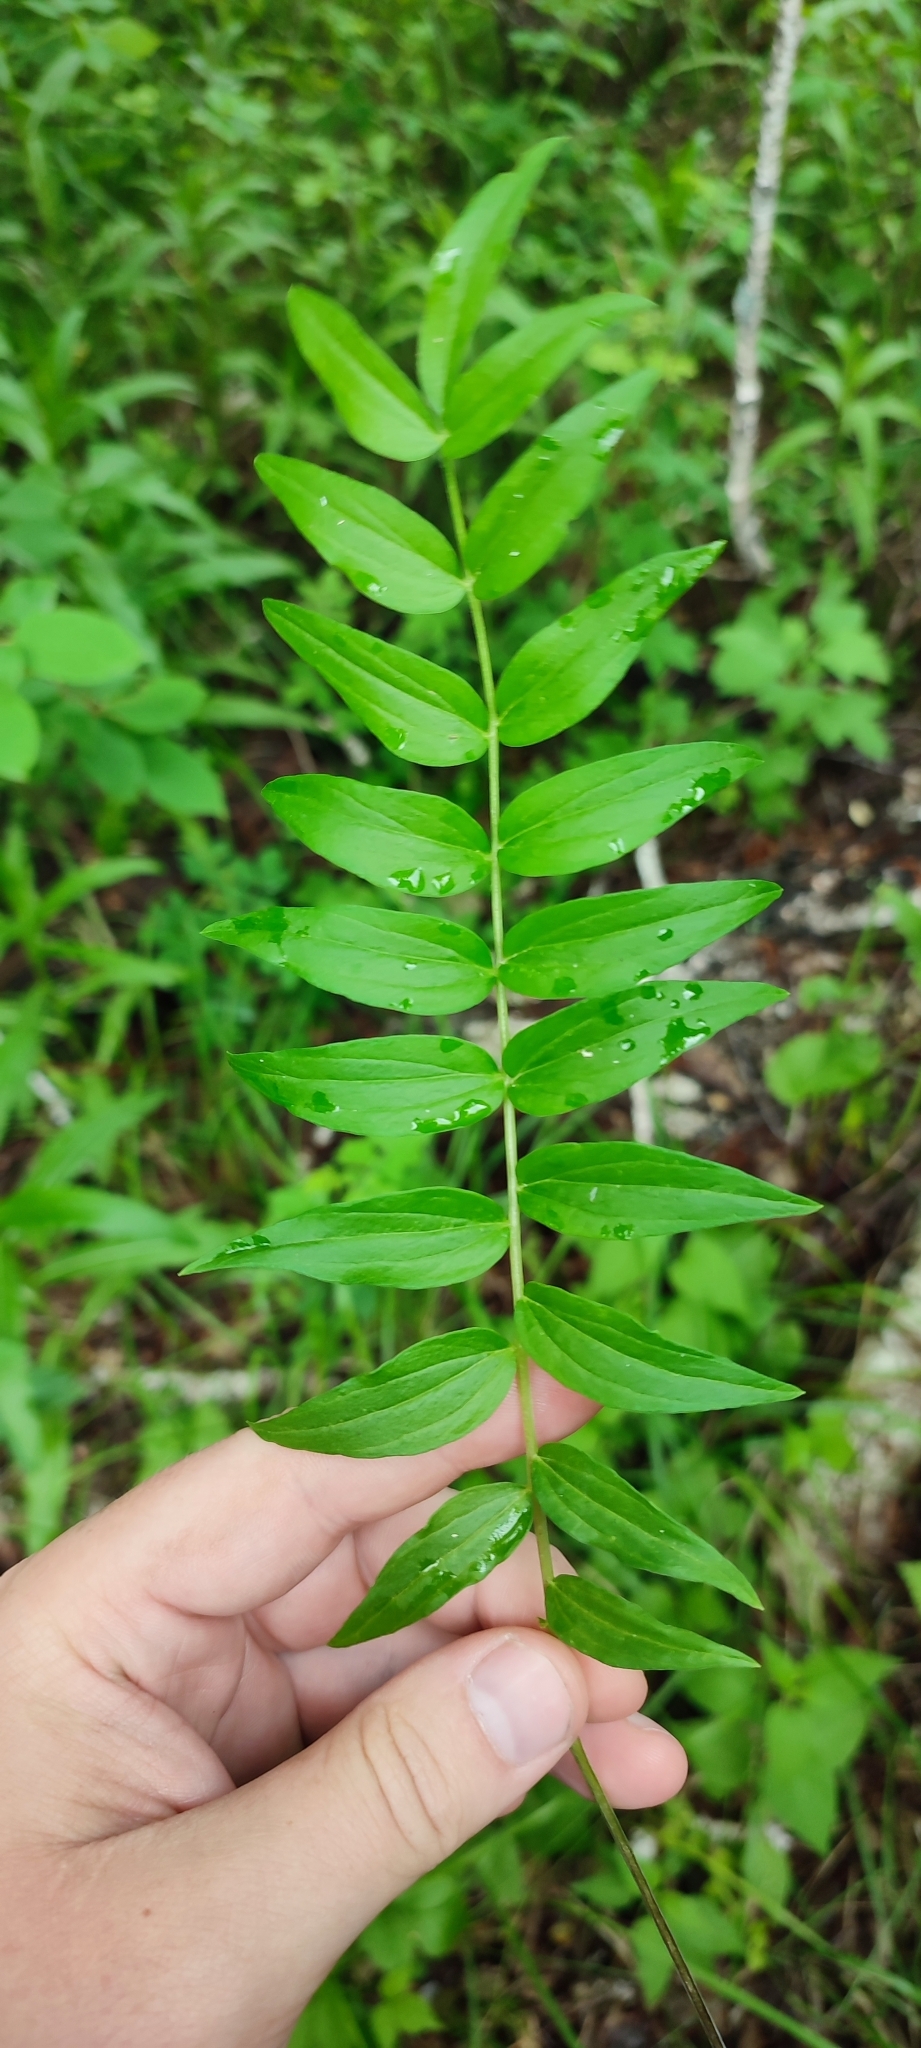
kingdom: Plantae
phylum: Tracheophyta
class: Magnoliopsida
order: Ericales
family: Polemoniaceae
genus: Polemonium
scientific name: Polemonium caeruleum
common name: Jacob's-ladder
